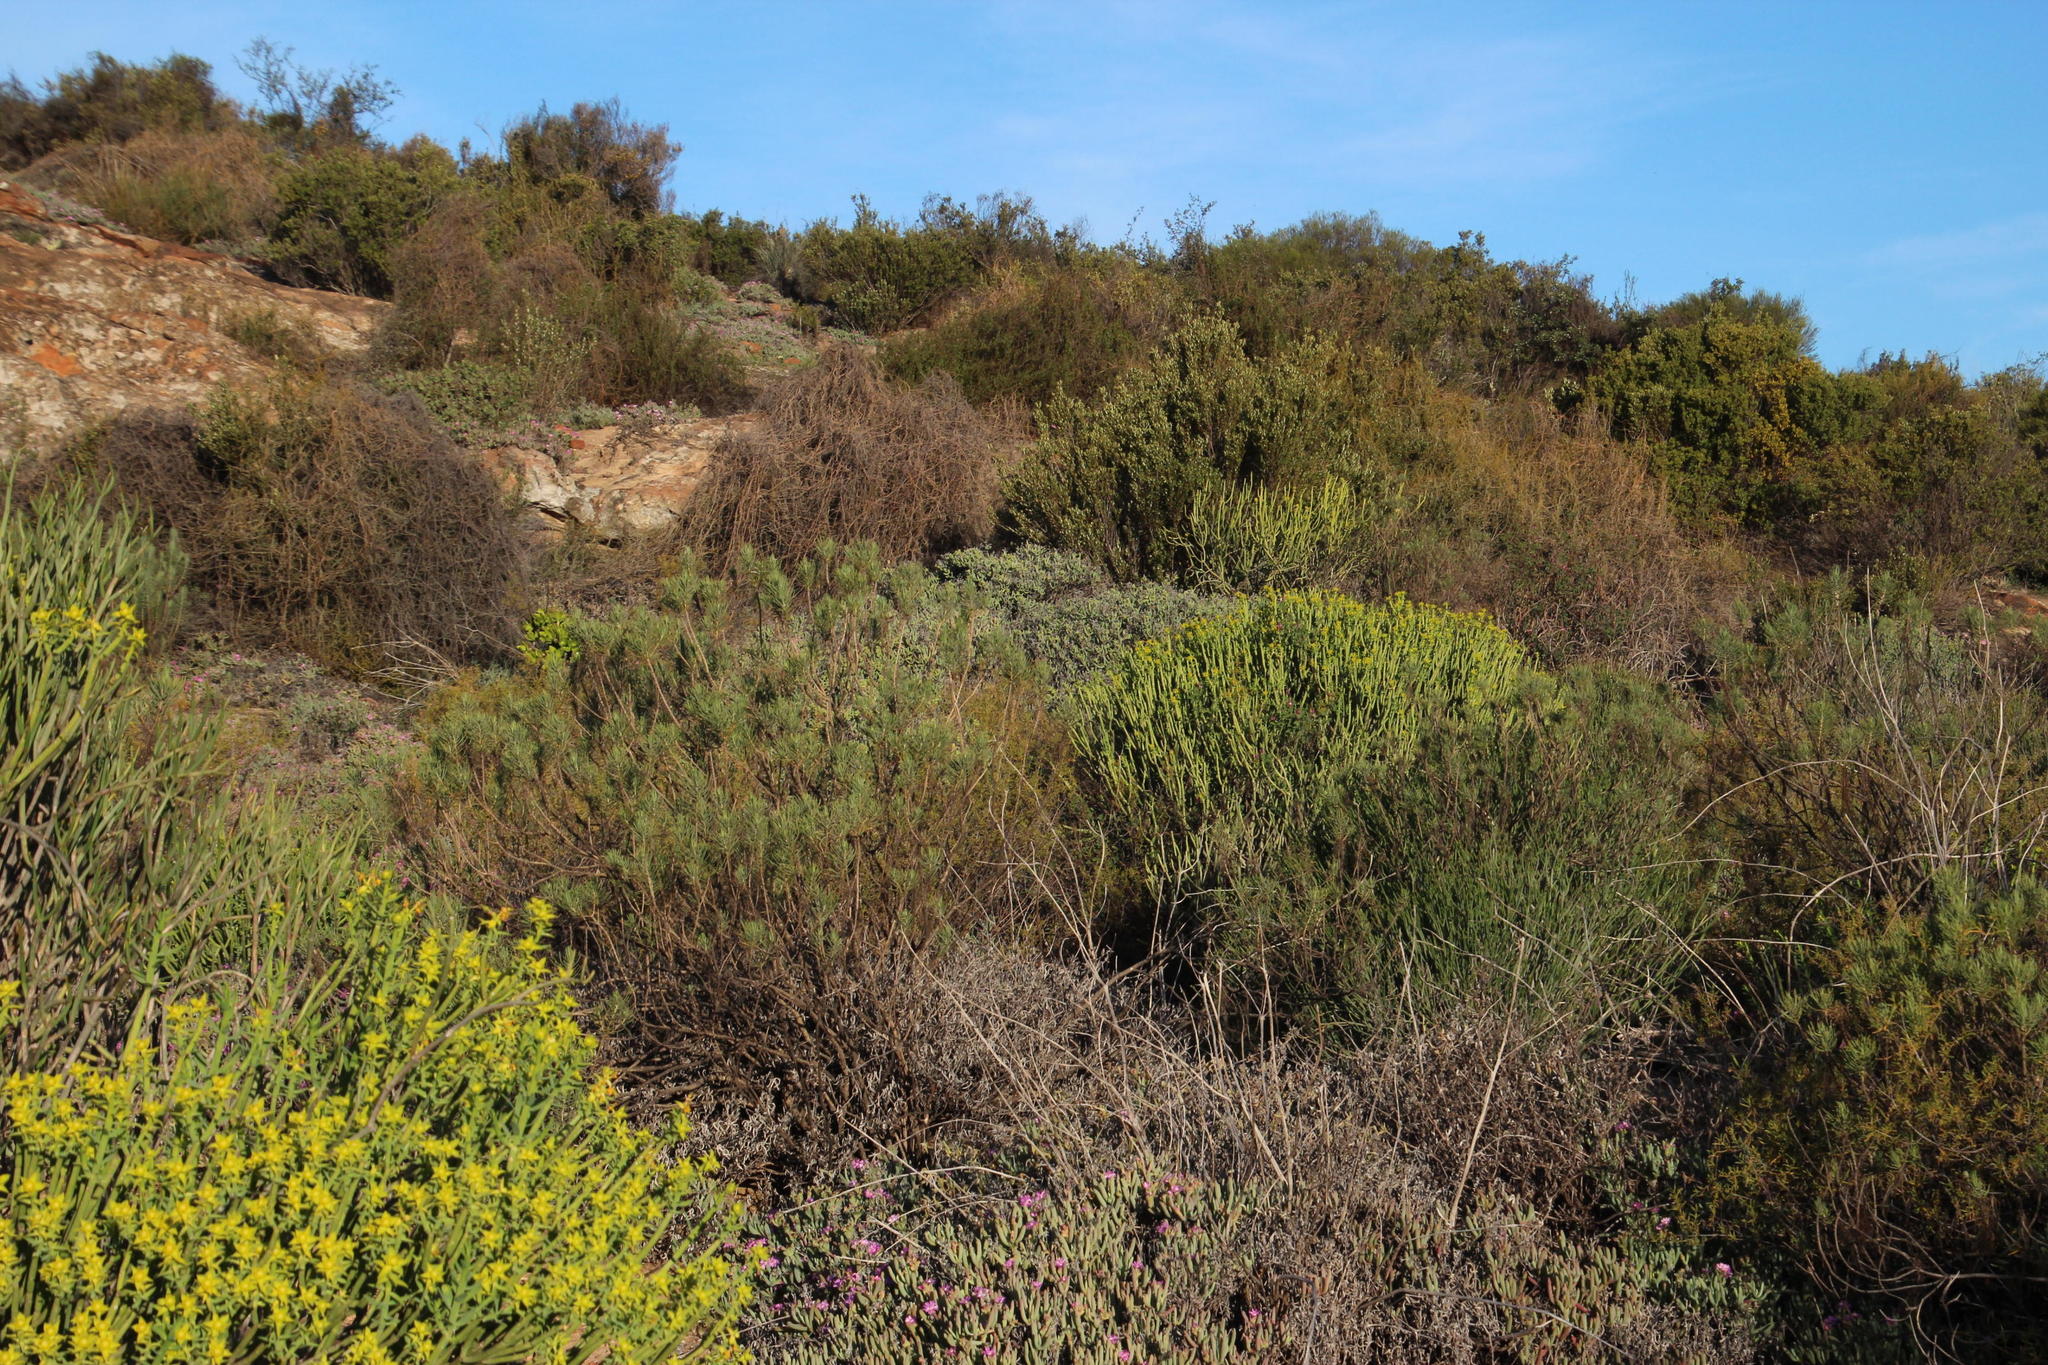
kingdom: Plantae
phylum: Tracheophyta
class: Magnoliopsida
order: Malpighiales
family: Euphorbiaceae
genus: Euphorbia
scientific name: Euphorbia mauritanica
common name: Jackal's-food
